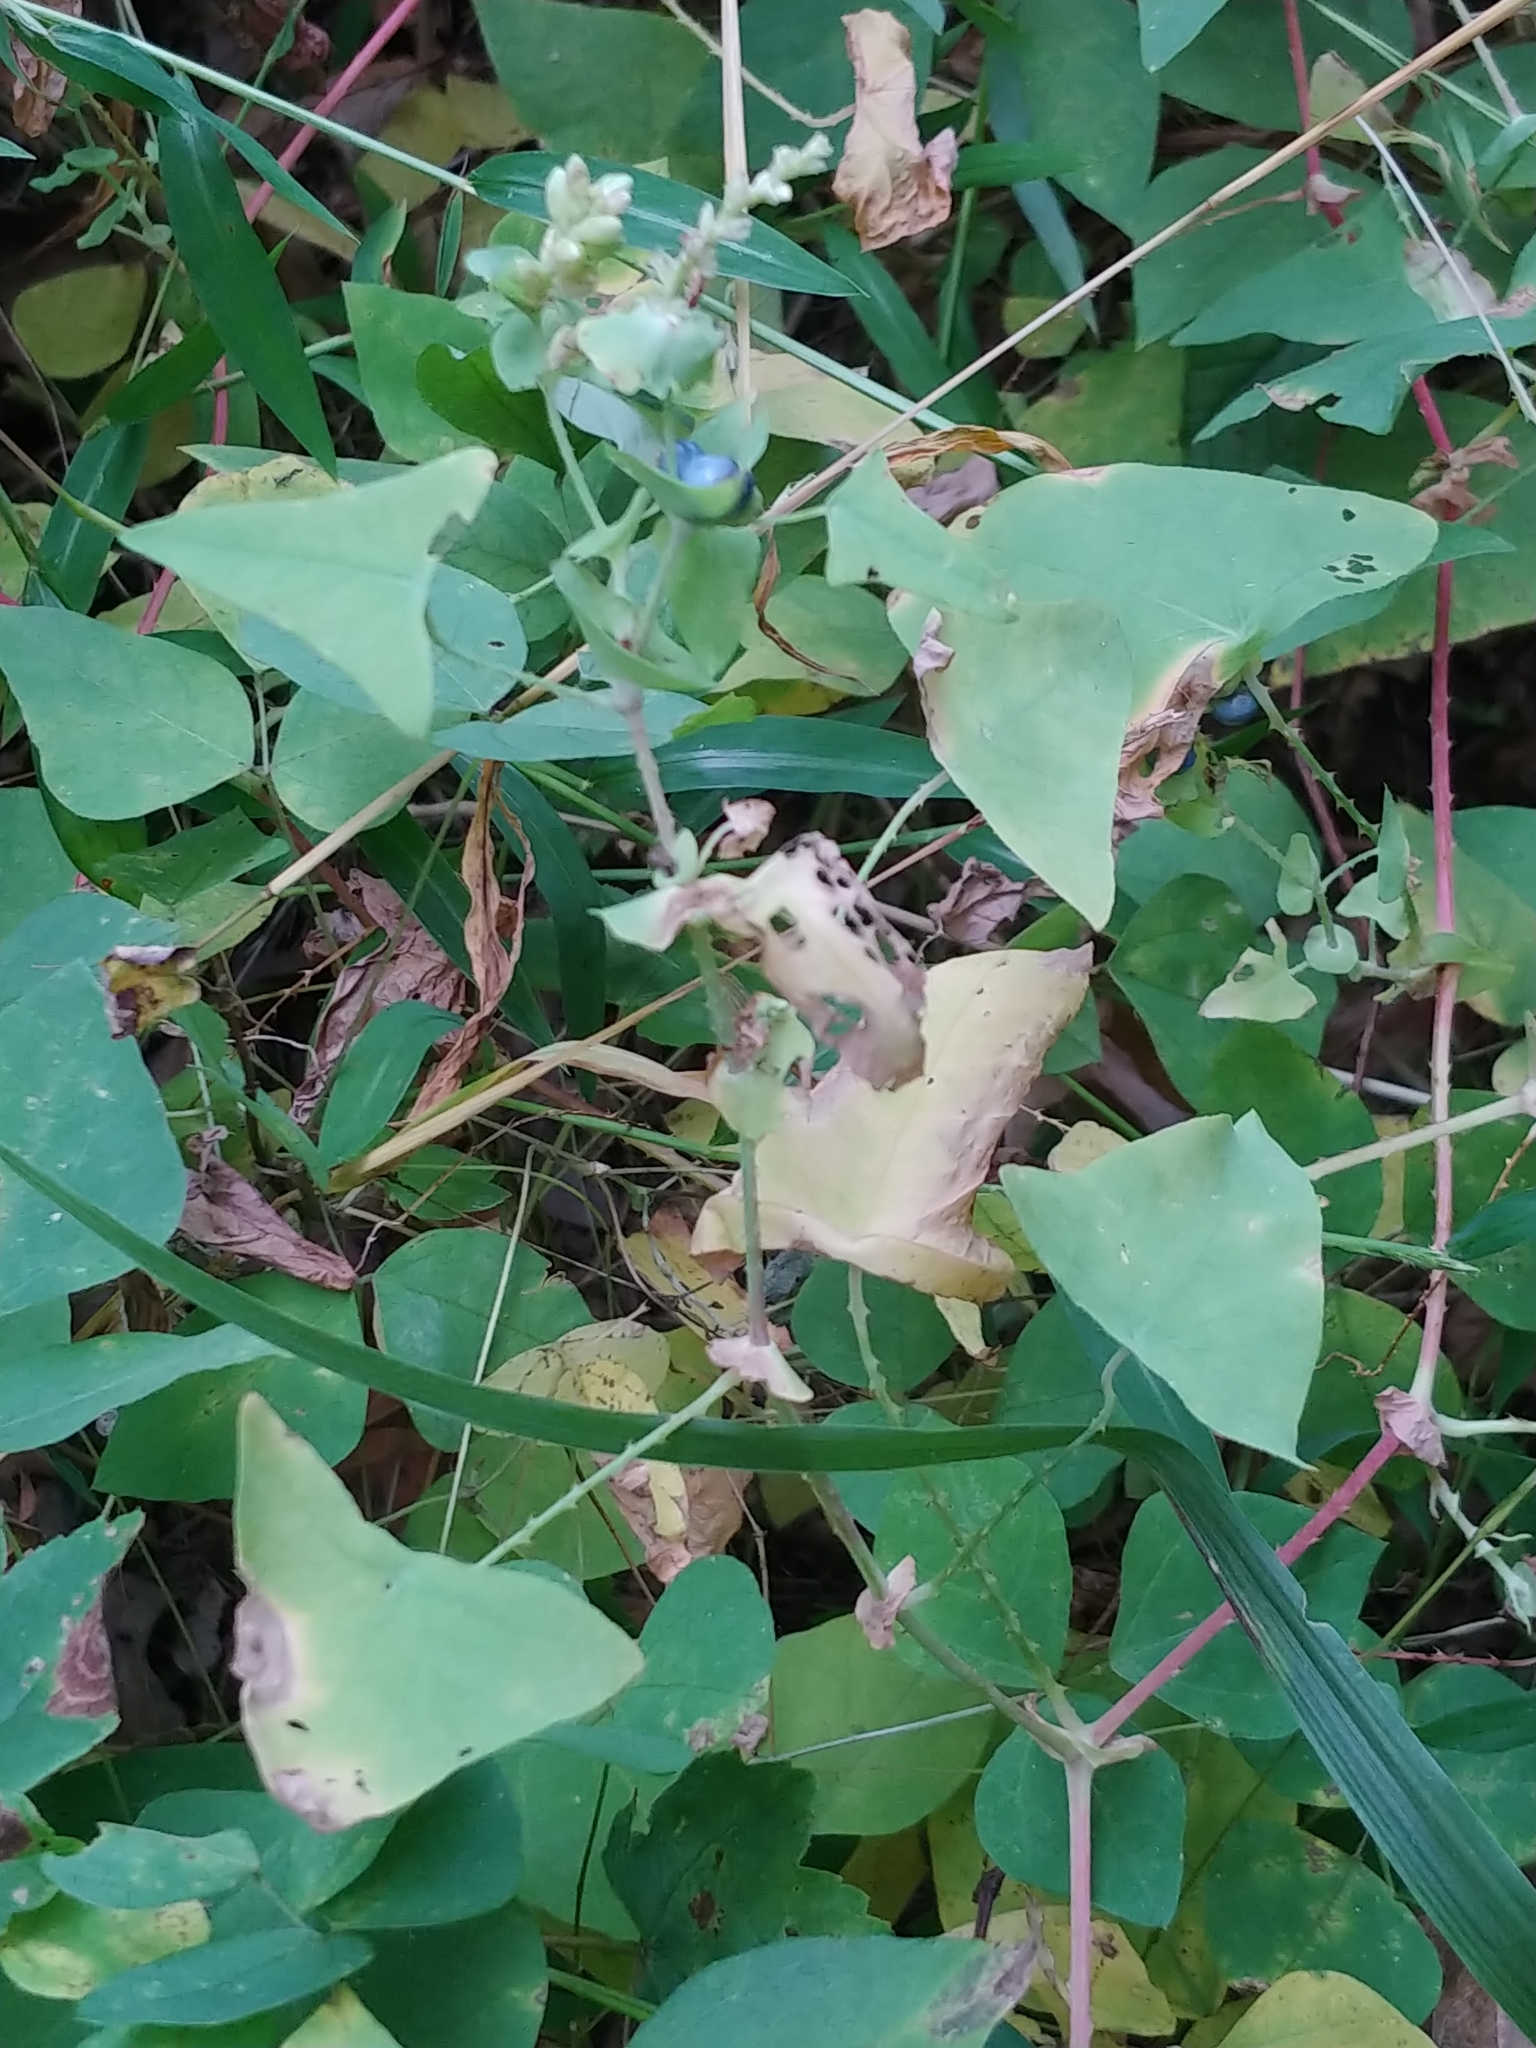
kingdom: Plantae
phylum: Tracheophyta
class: Magnoliopsida
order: Caryophyllales
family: Polygonaceae
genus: Persicaria
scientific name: Persicaria perfoliata
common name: Asiatic tearthumb
